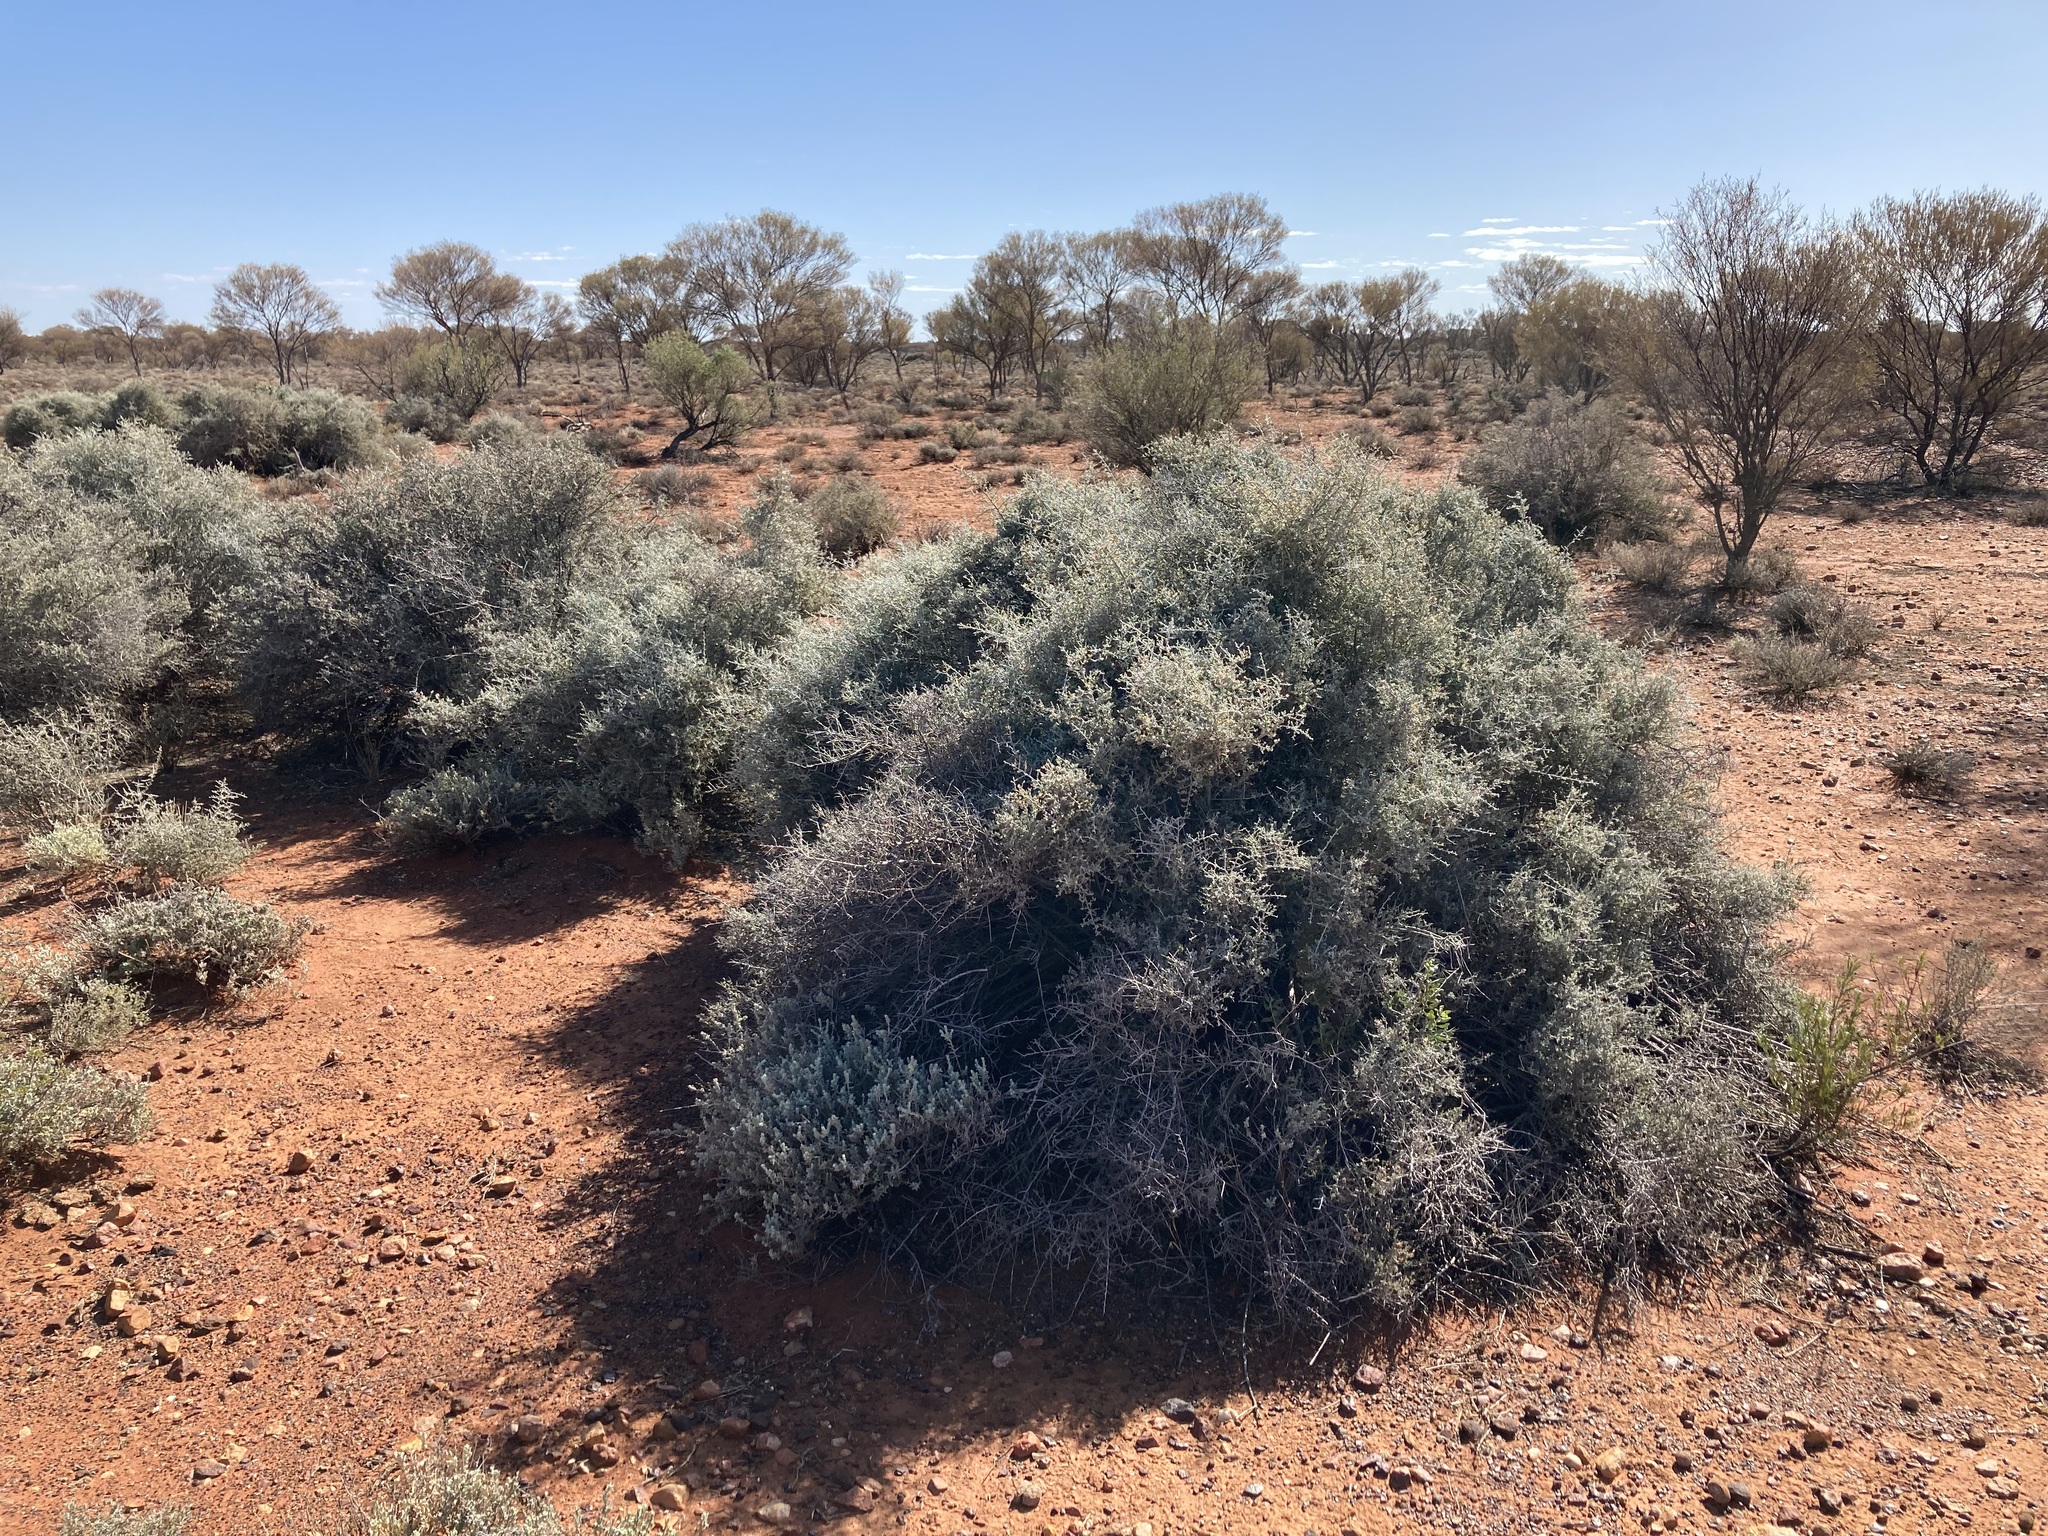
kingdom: Plantae
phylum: Tracheophyta
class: Magnoliopsida
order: Asterales
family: Asteraceae
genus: Cratystylis
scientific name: Cratystylis subspinescens
